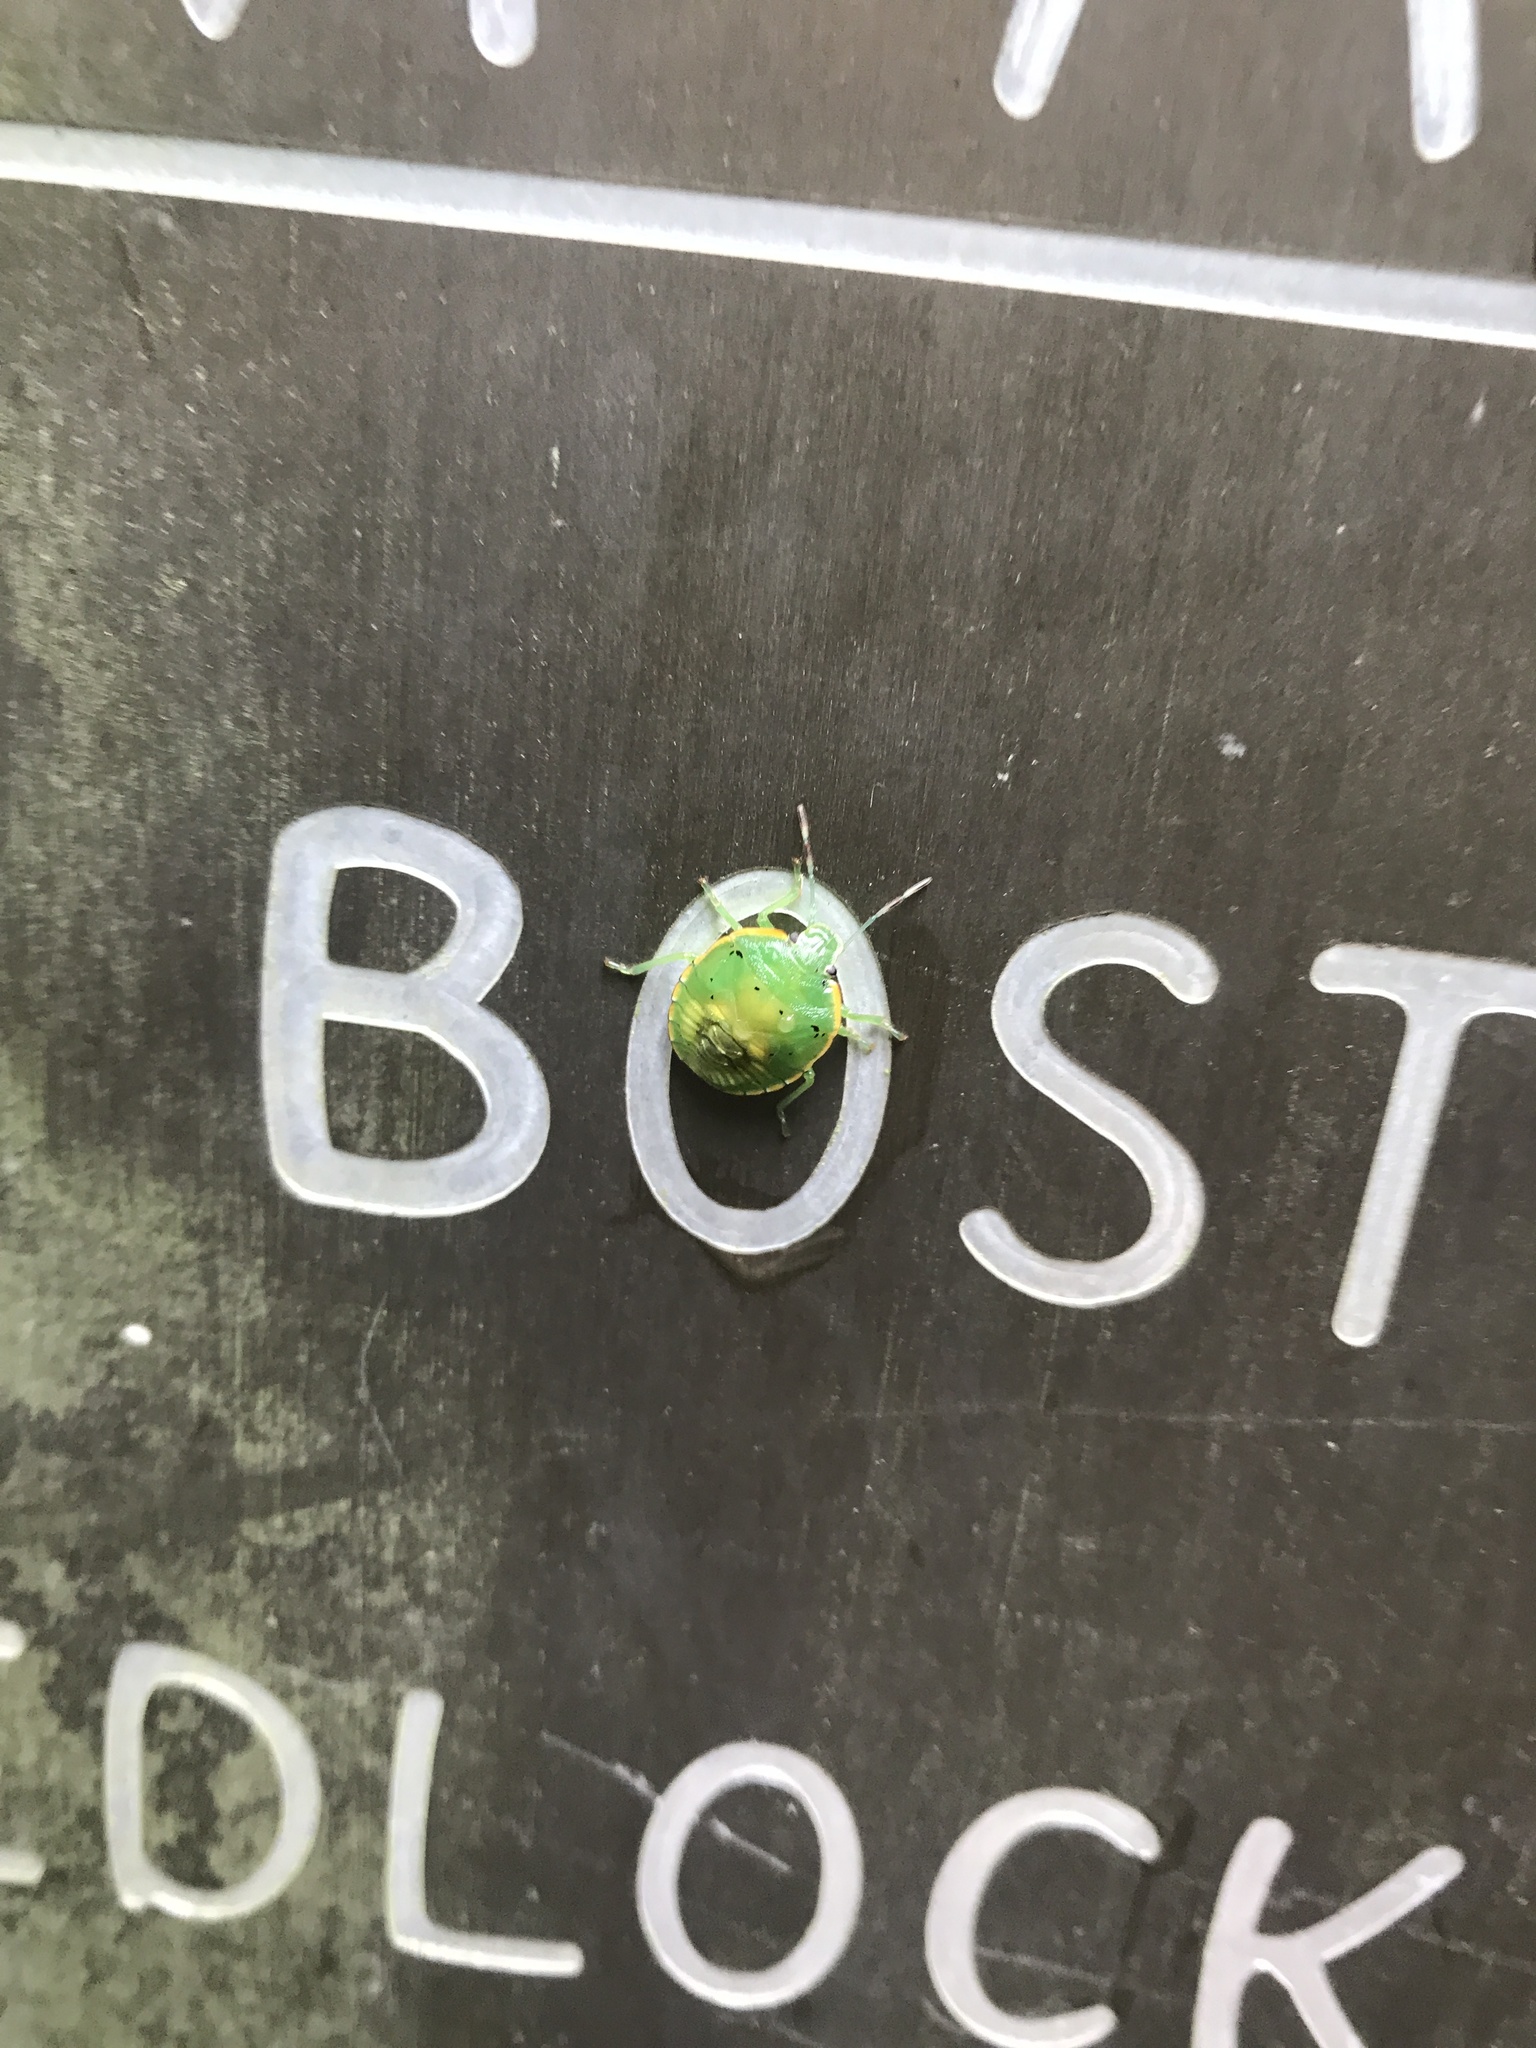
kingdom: Animalia
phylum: Arthropoda
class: Insecta
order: Hemiptera
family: Pentatomidae
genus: Chinavia
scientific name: Chinavia hilaris
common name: Green stink bug
